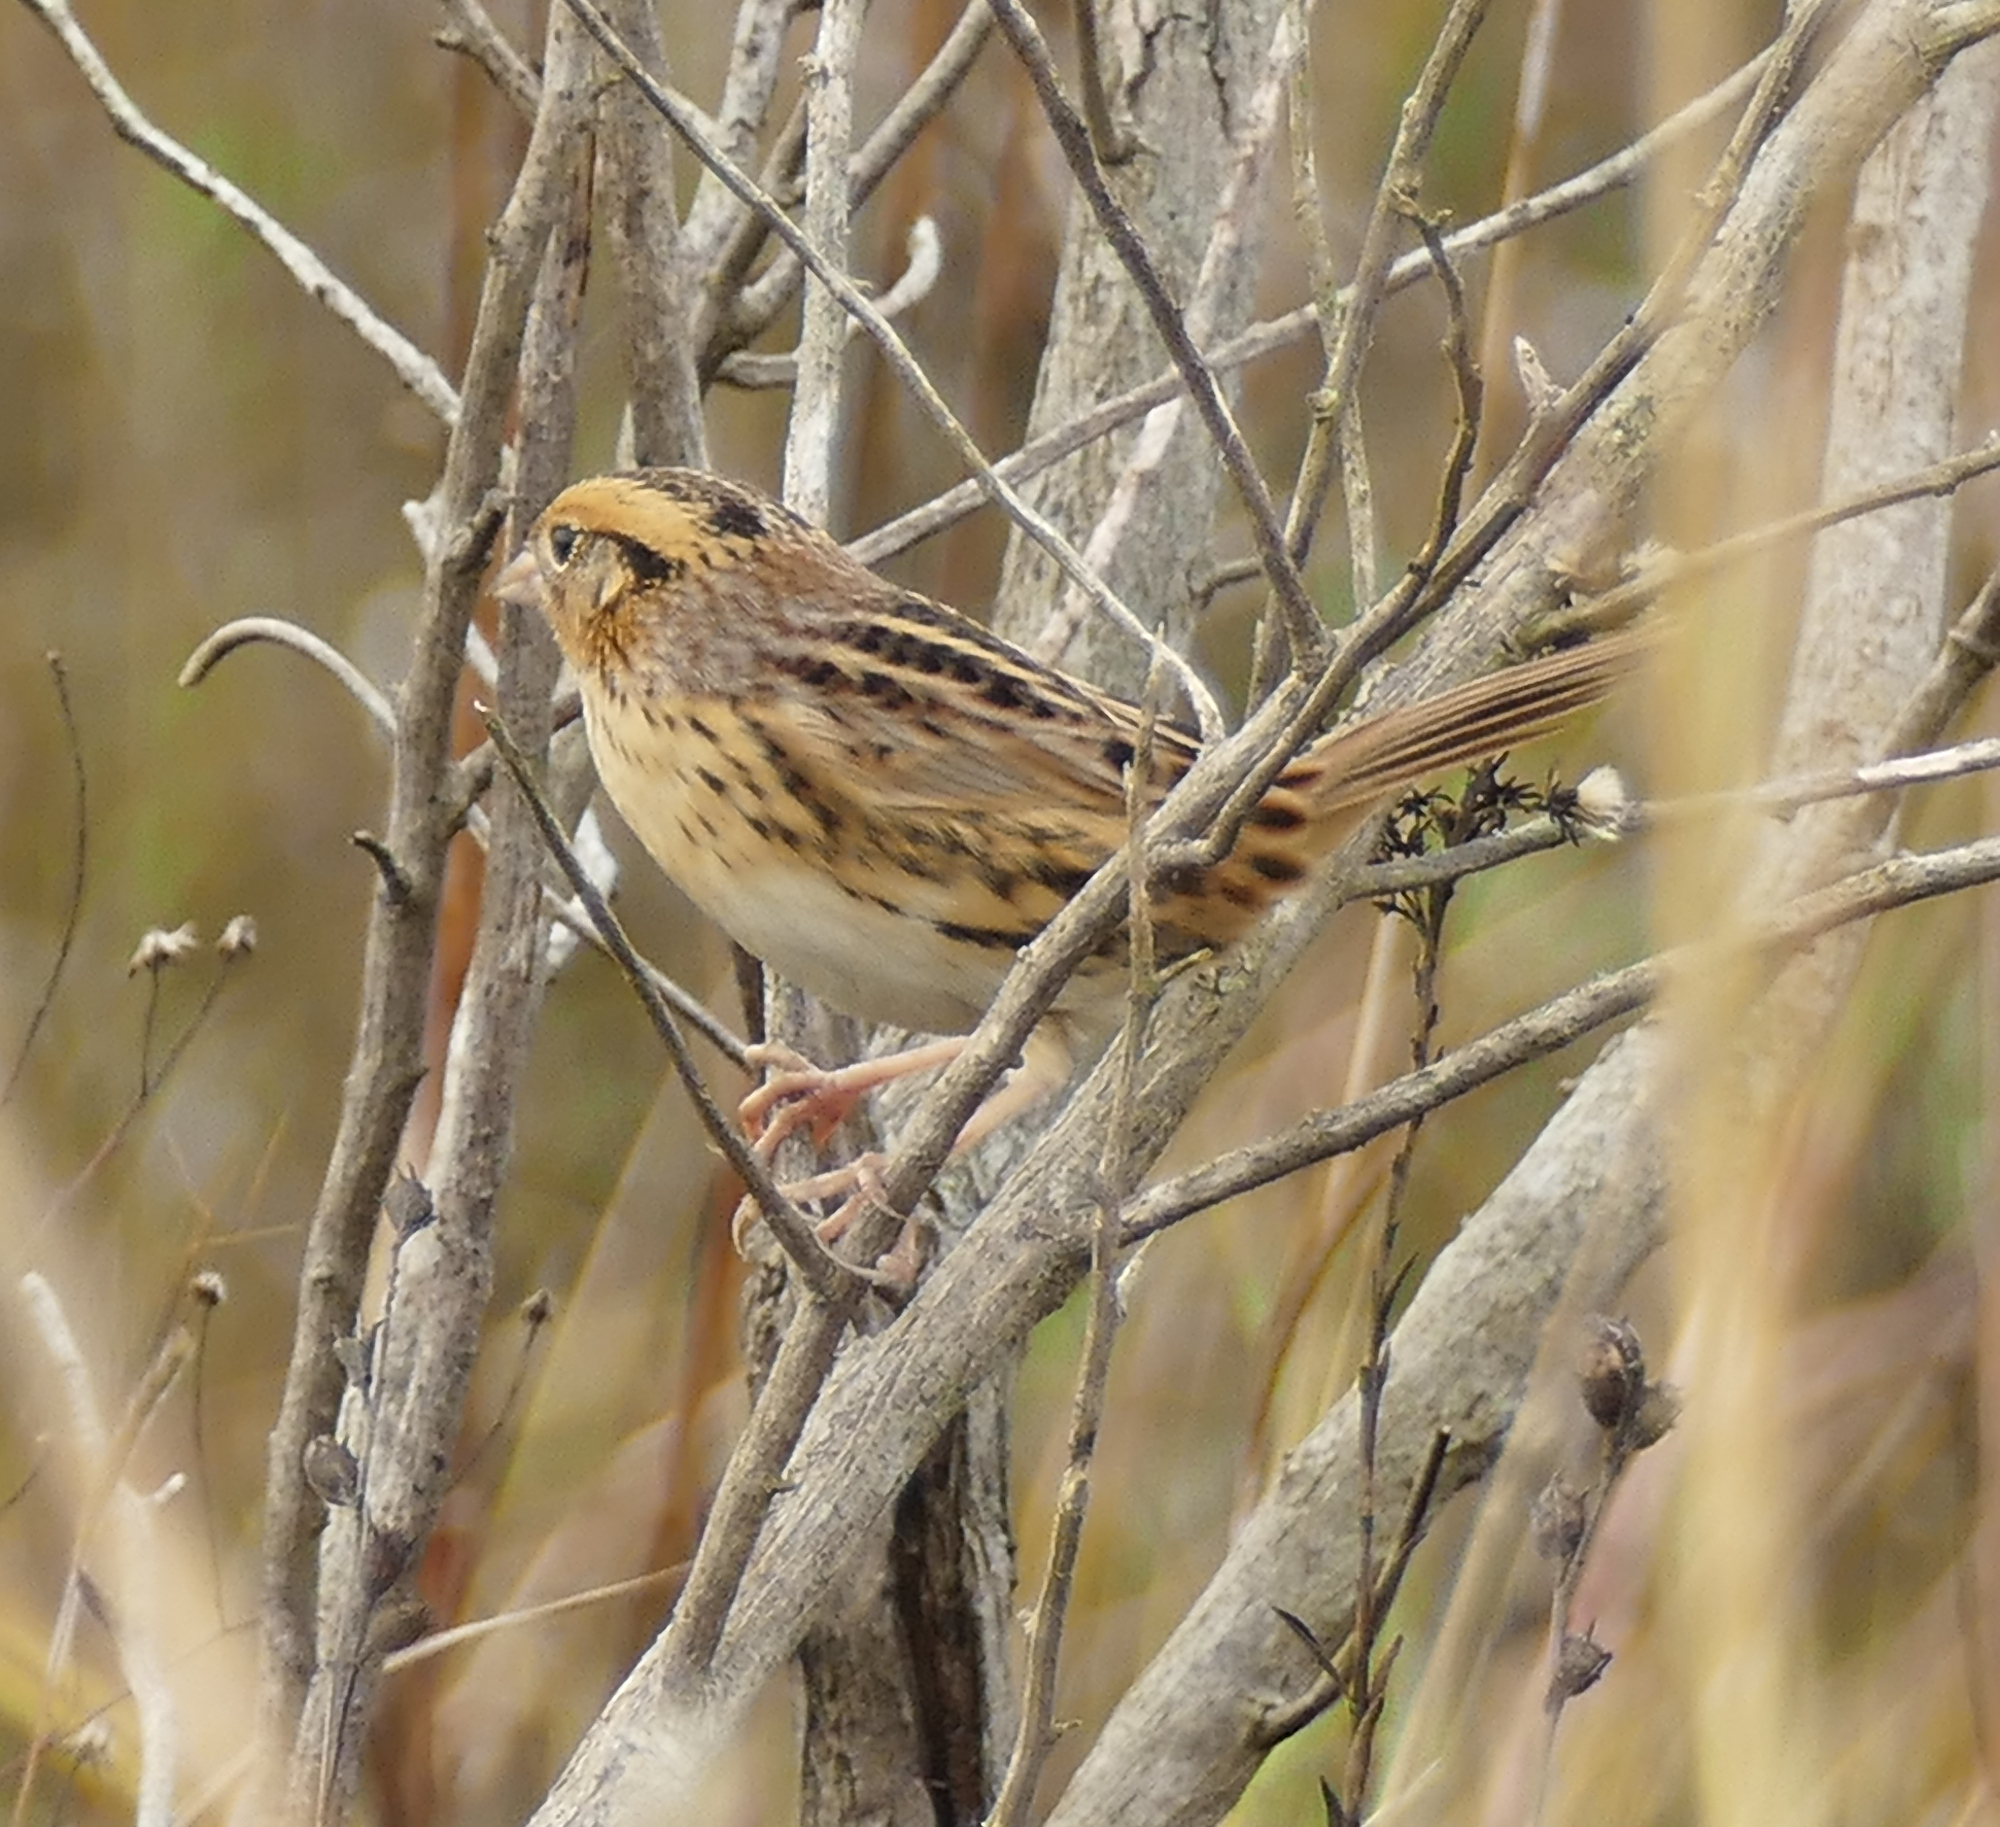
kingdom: Animalia
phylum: Chordata
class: Aves
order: Passeriformes
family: Passerellidae
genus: Ammospiza
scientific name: Ammospiza leconteii
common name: Le conte's sparrow
